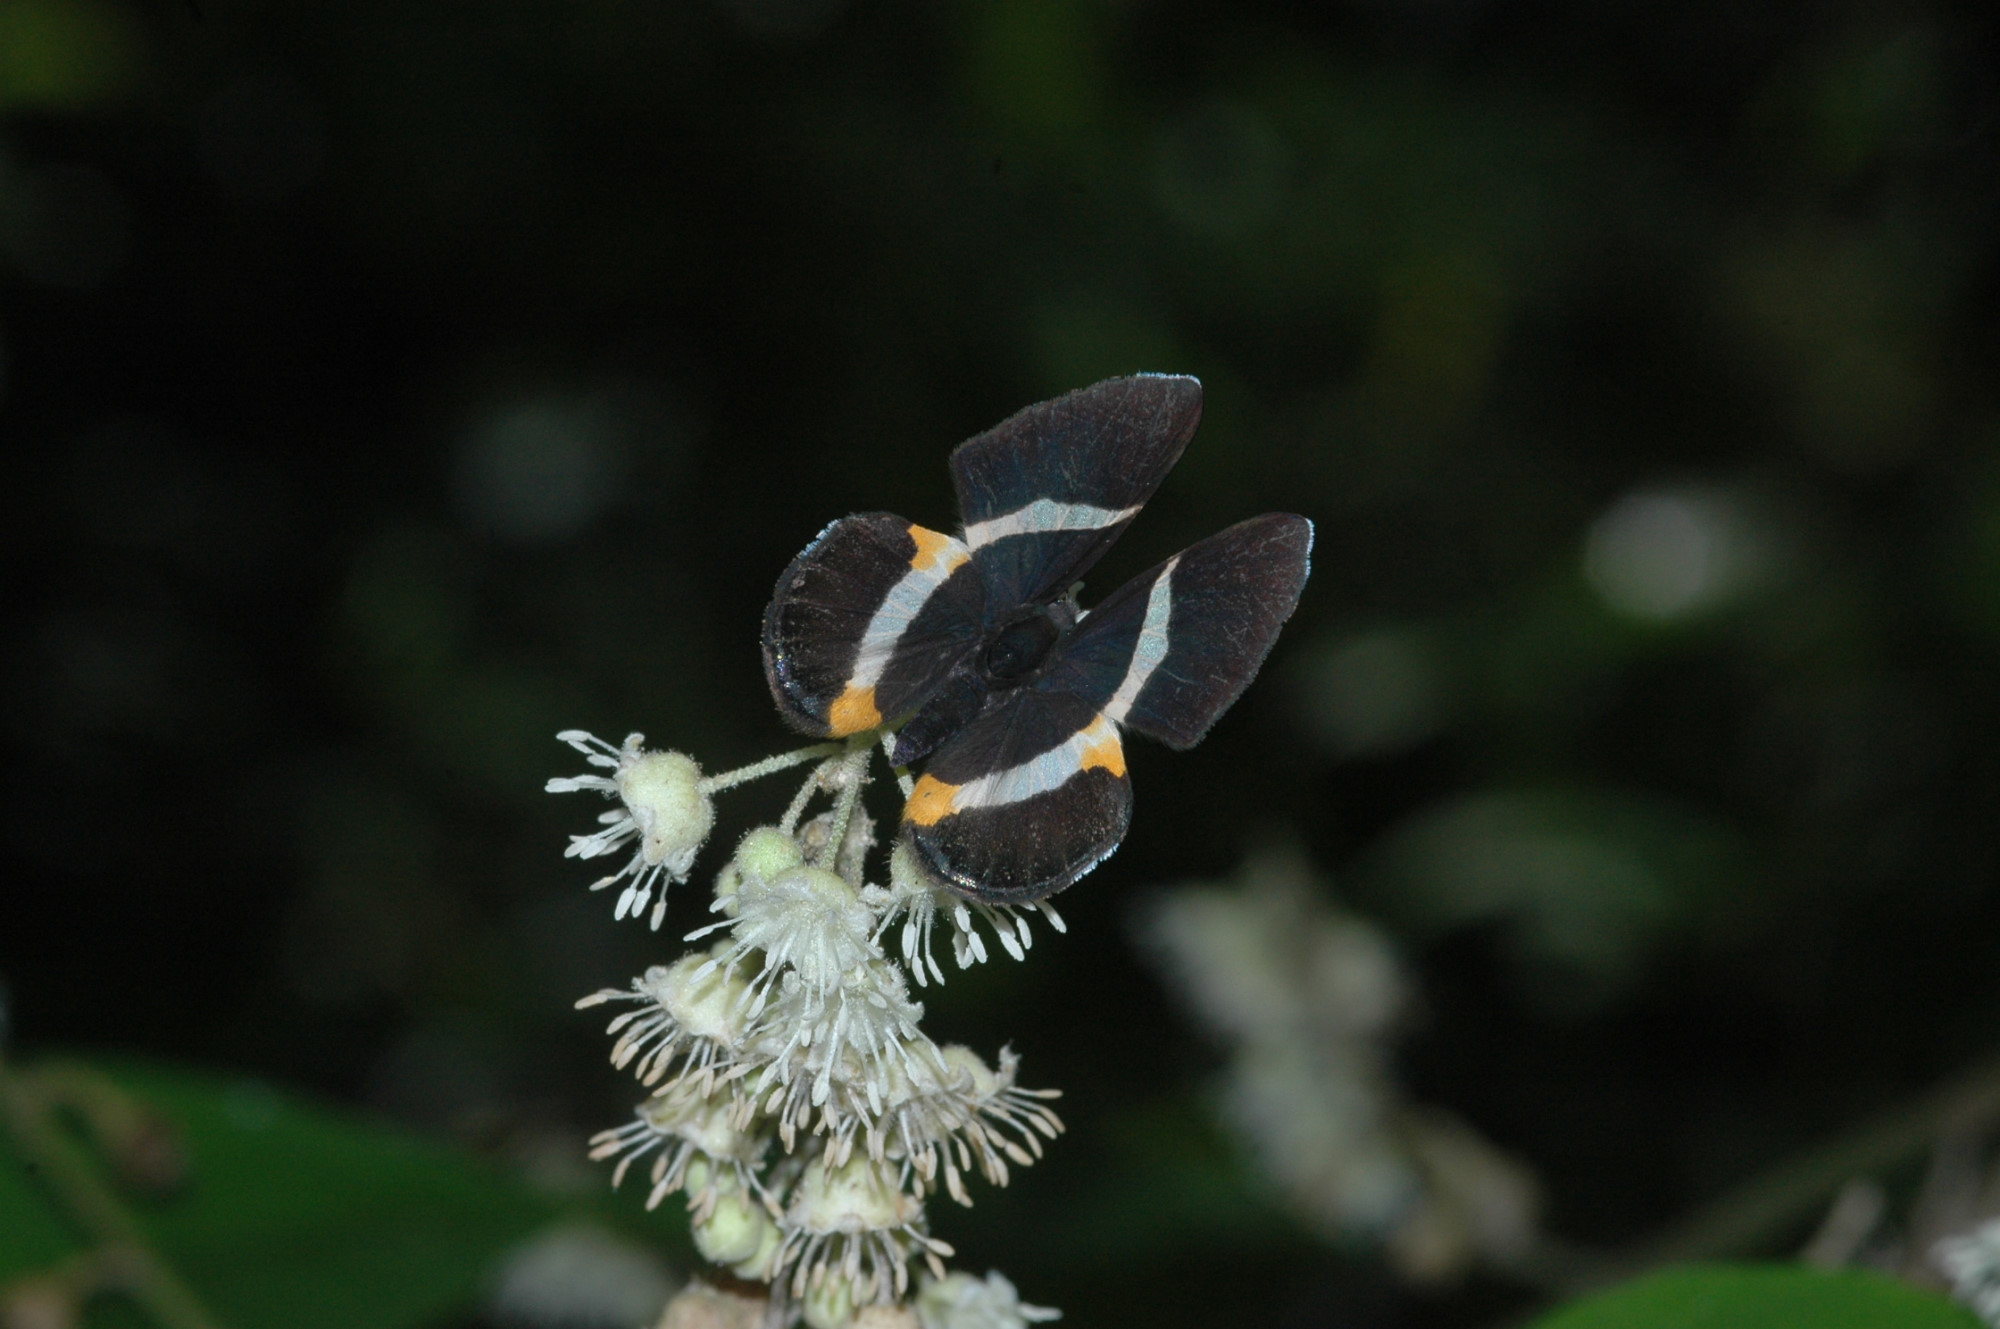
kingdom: Animalia
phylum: Arthropoda
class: Insecta
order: Lepidoptera
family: Riodinidae
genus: Notheme
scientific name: Notheme eumeus
